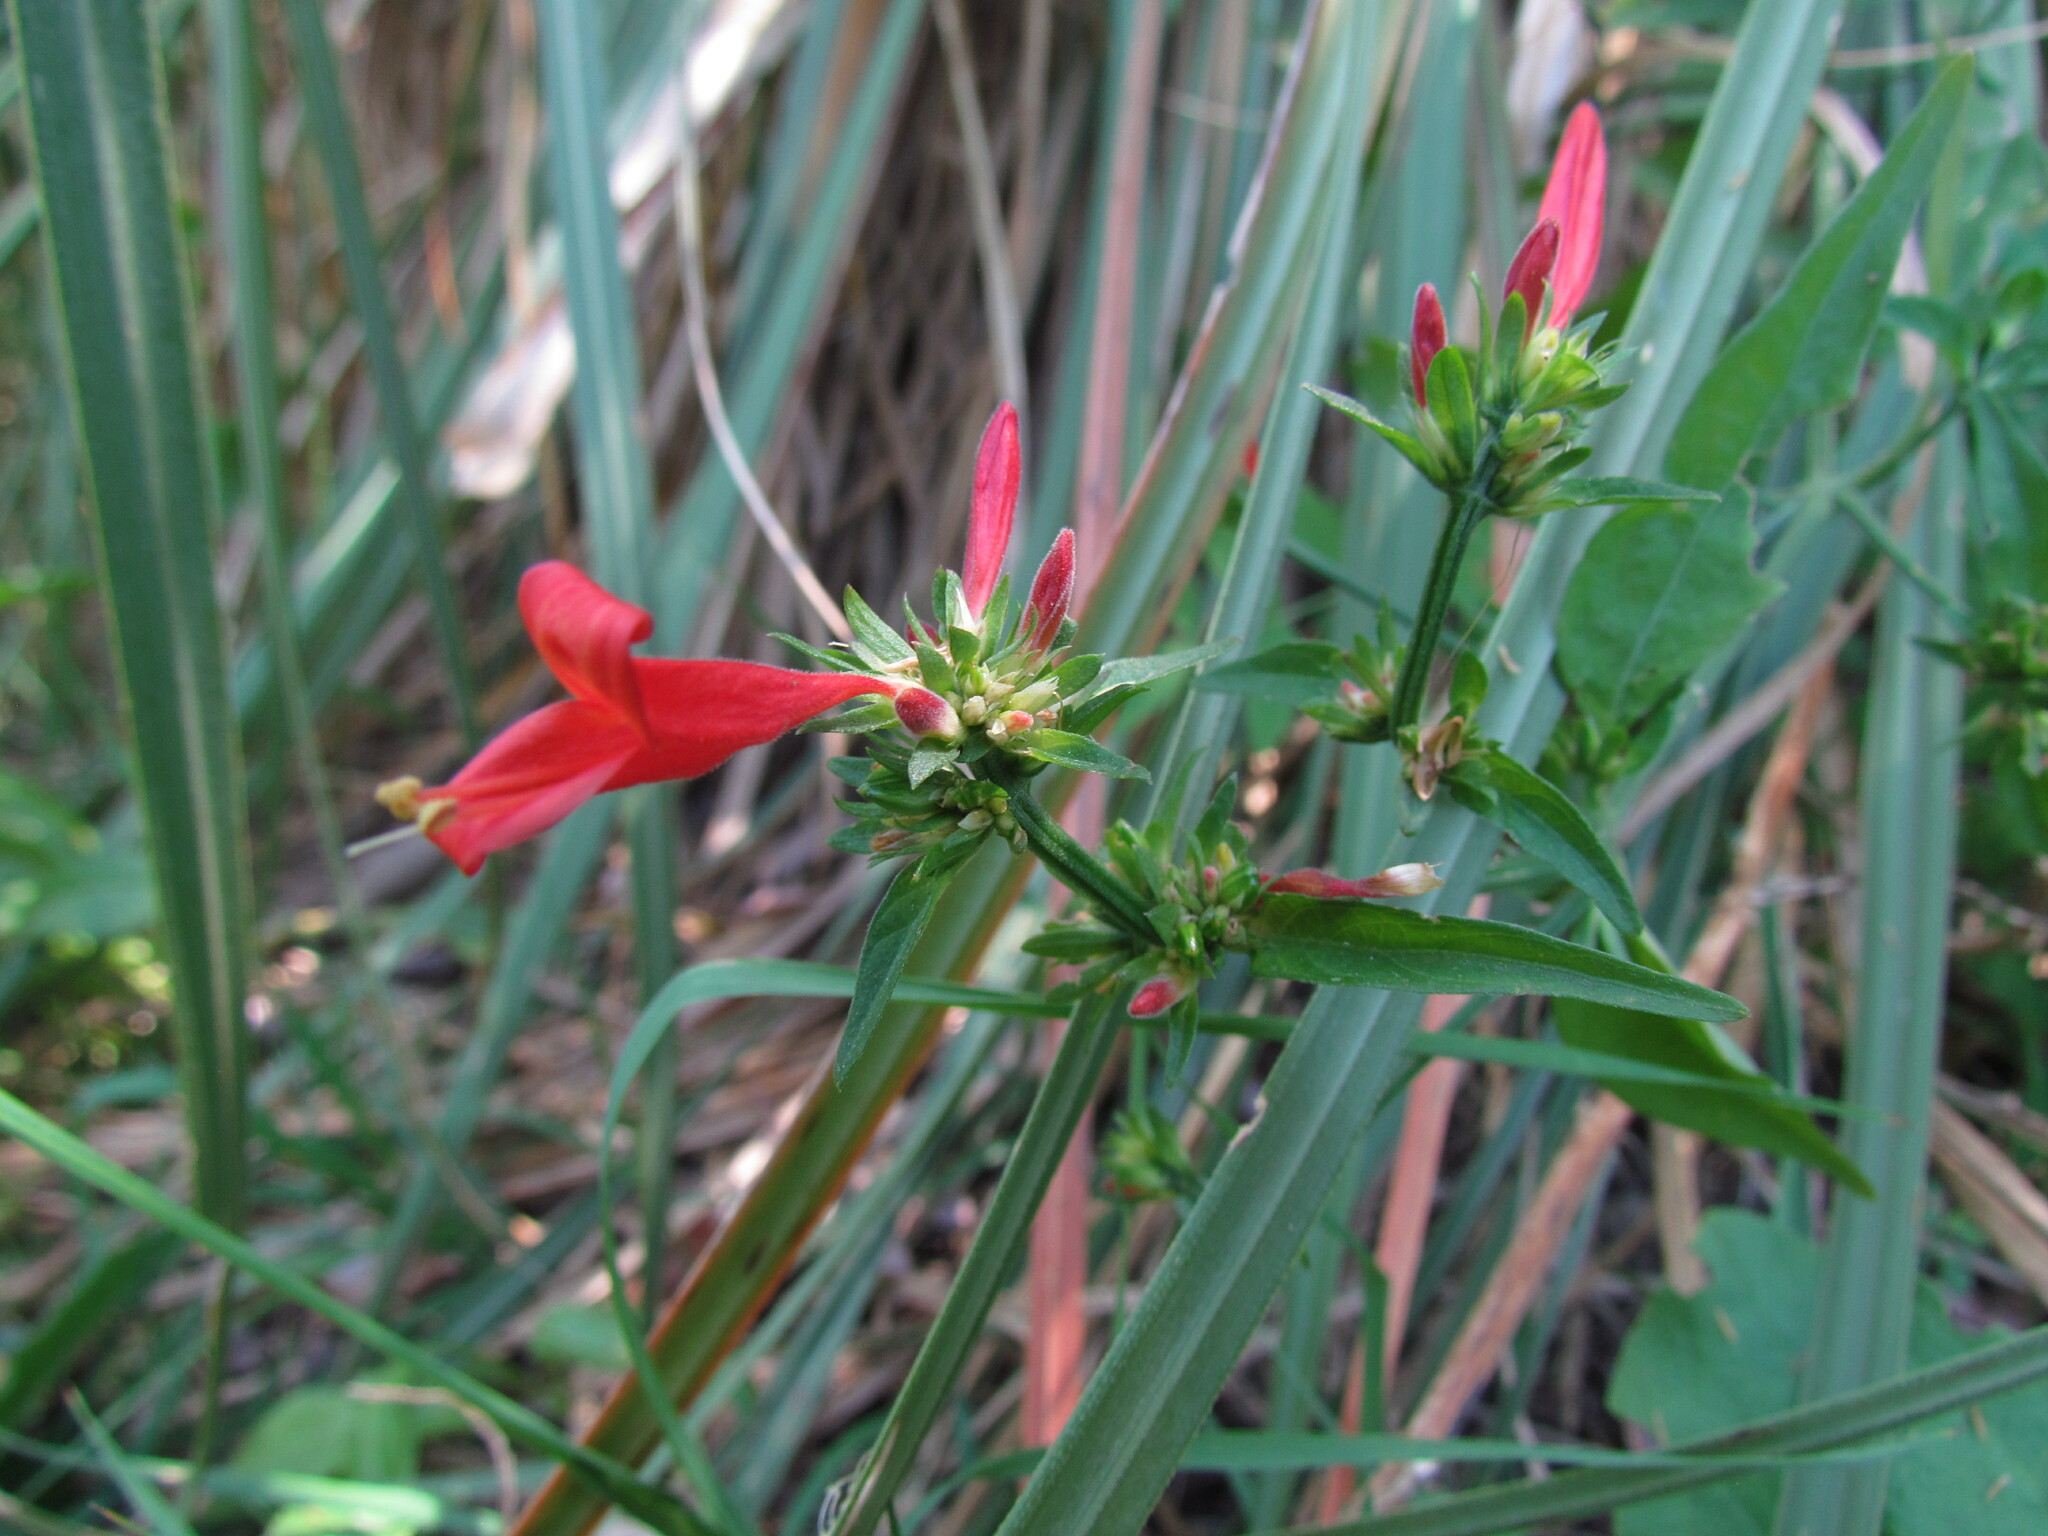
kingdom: Plantae
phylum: Tracheophyta
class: Magnoliopsida
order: Lamiales
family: Acanthaceae
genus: Dicliptera
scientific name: Dicliptera squarrosa
